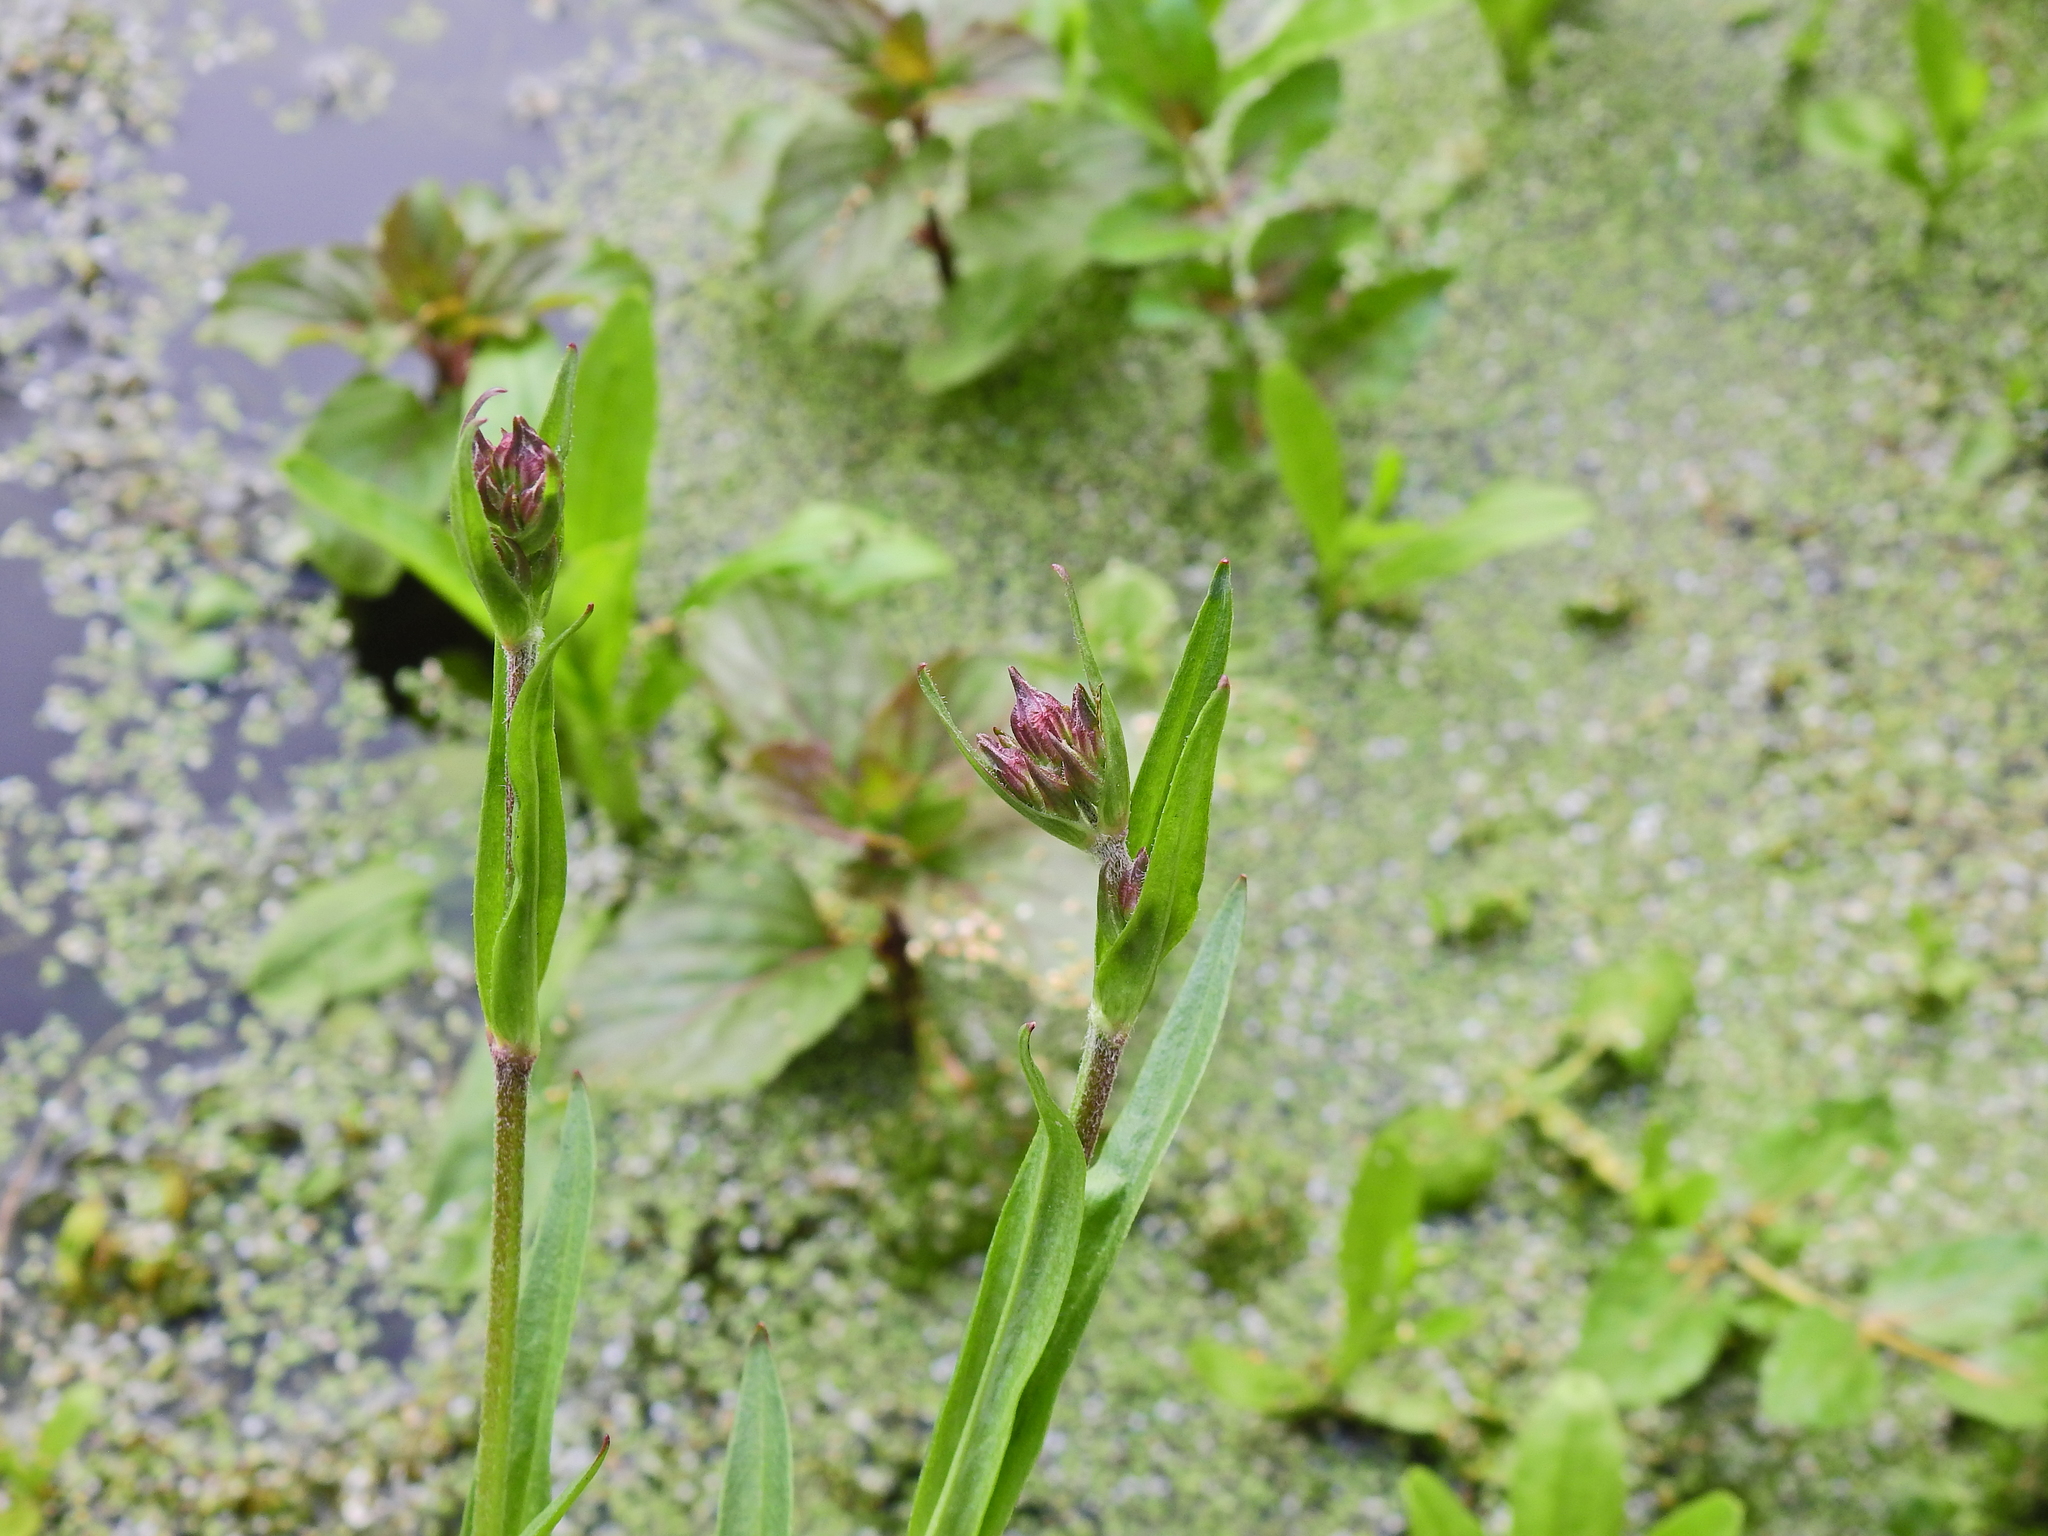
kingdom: Plantae
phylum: Tracheophyta
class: Magnoliopsida
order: Caryophyllales
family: Caryophyllaceae
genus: Silene
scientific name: Silene flos-cuculi
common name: Ragged-robin
